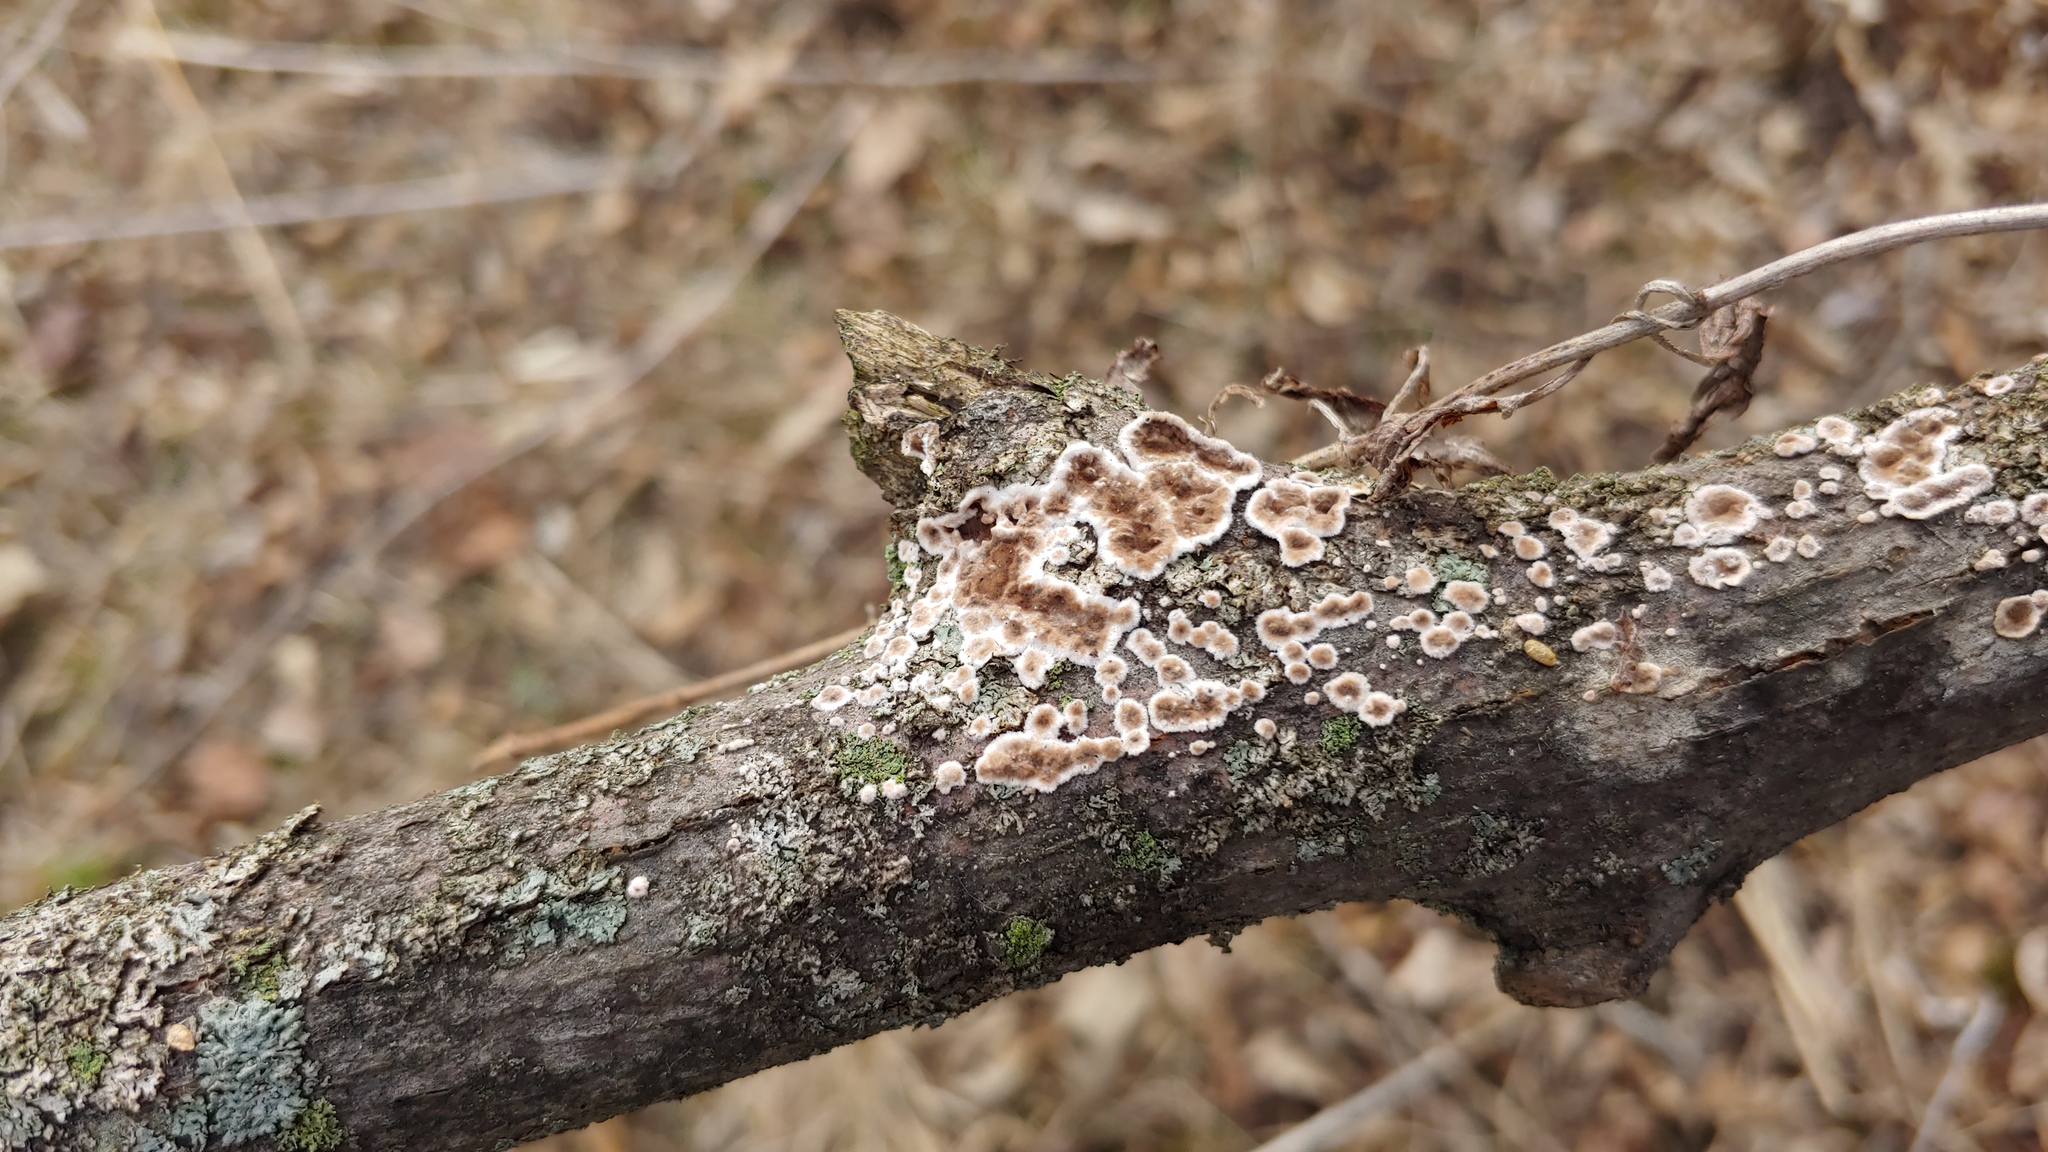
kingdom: Fungi
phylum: Basidiomycota
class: Agaricomycetes
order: Russulales
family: Peniophoraceae
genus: Peniophora
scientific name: Peniophora albobadia
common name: Giraffe spots
